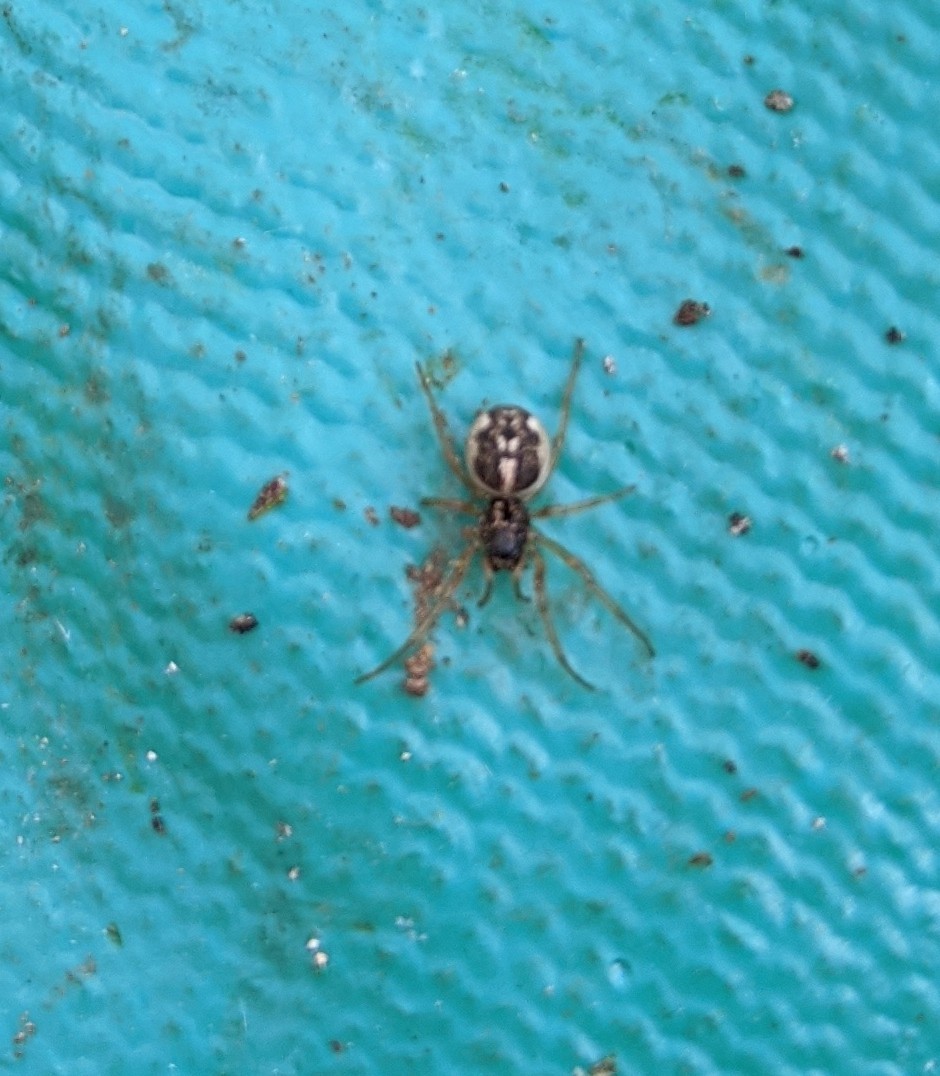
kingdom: Animalia
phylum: Arthropoda
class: Arachnida
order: Araneae
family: Tetragnathidae
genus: Pachygnatha
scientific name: Pachygnatha degeeri
